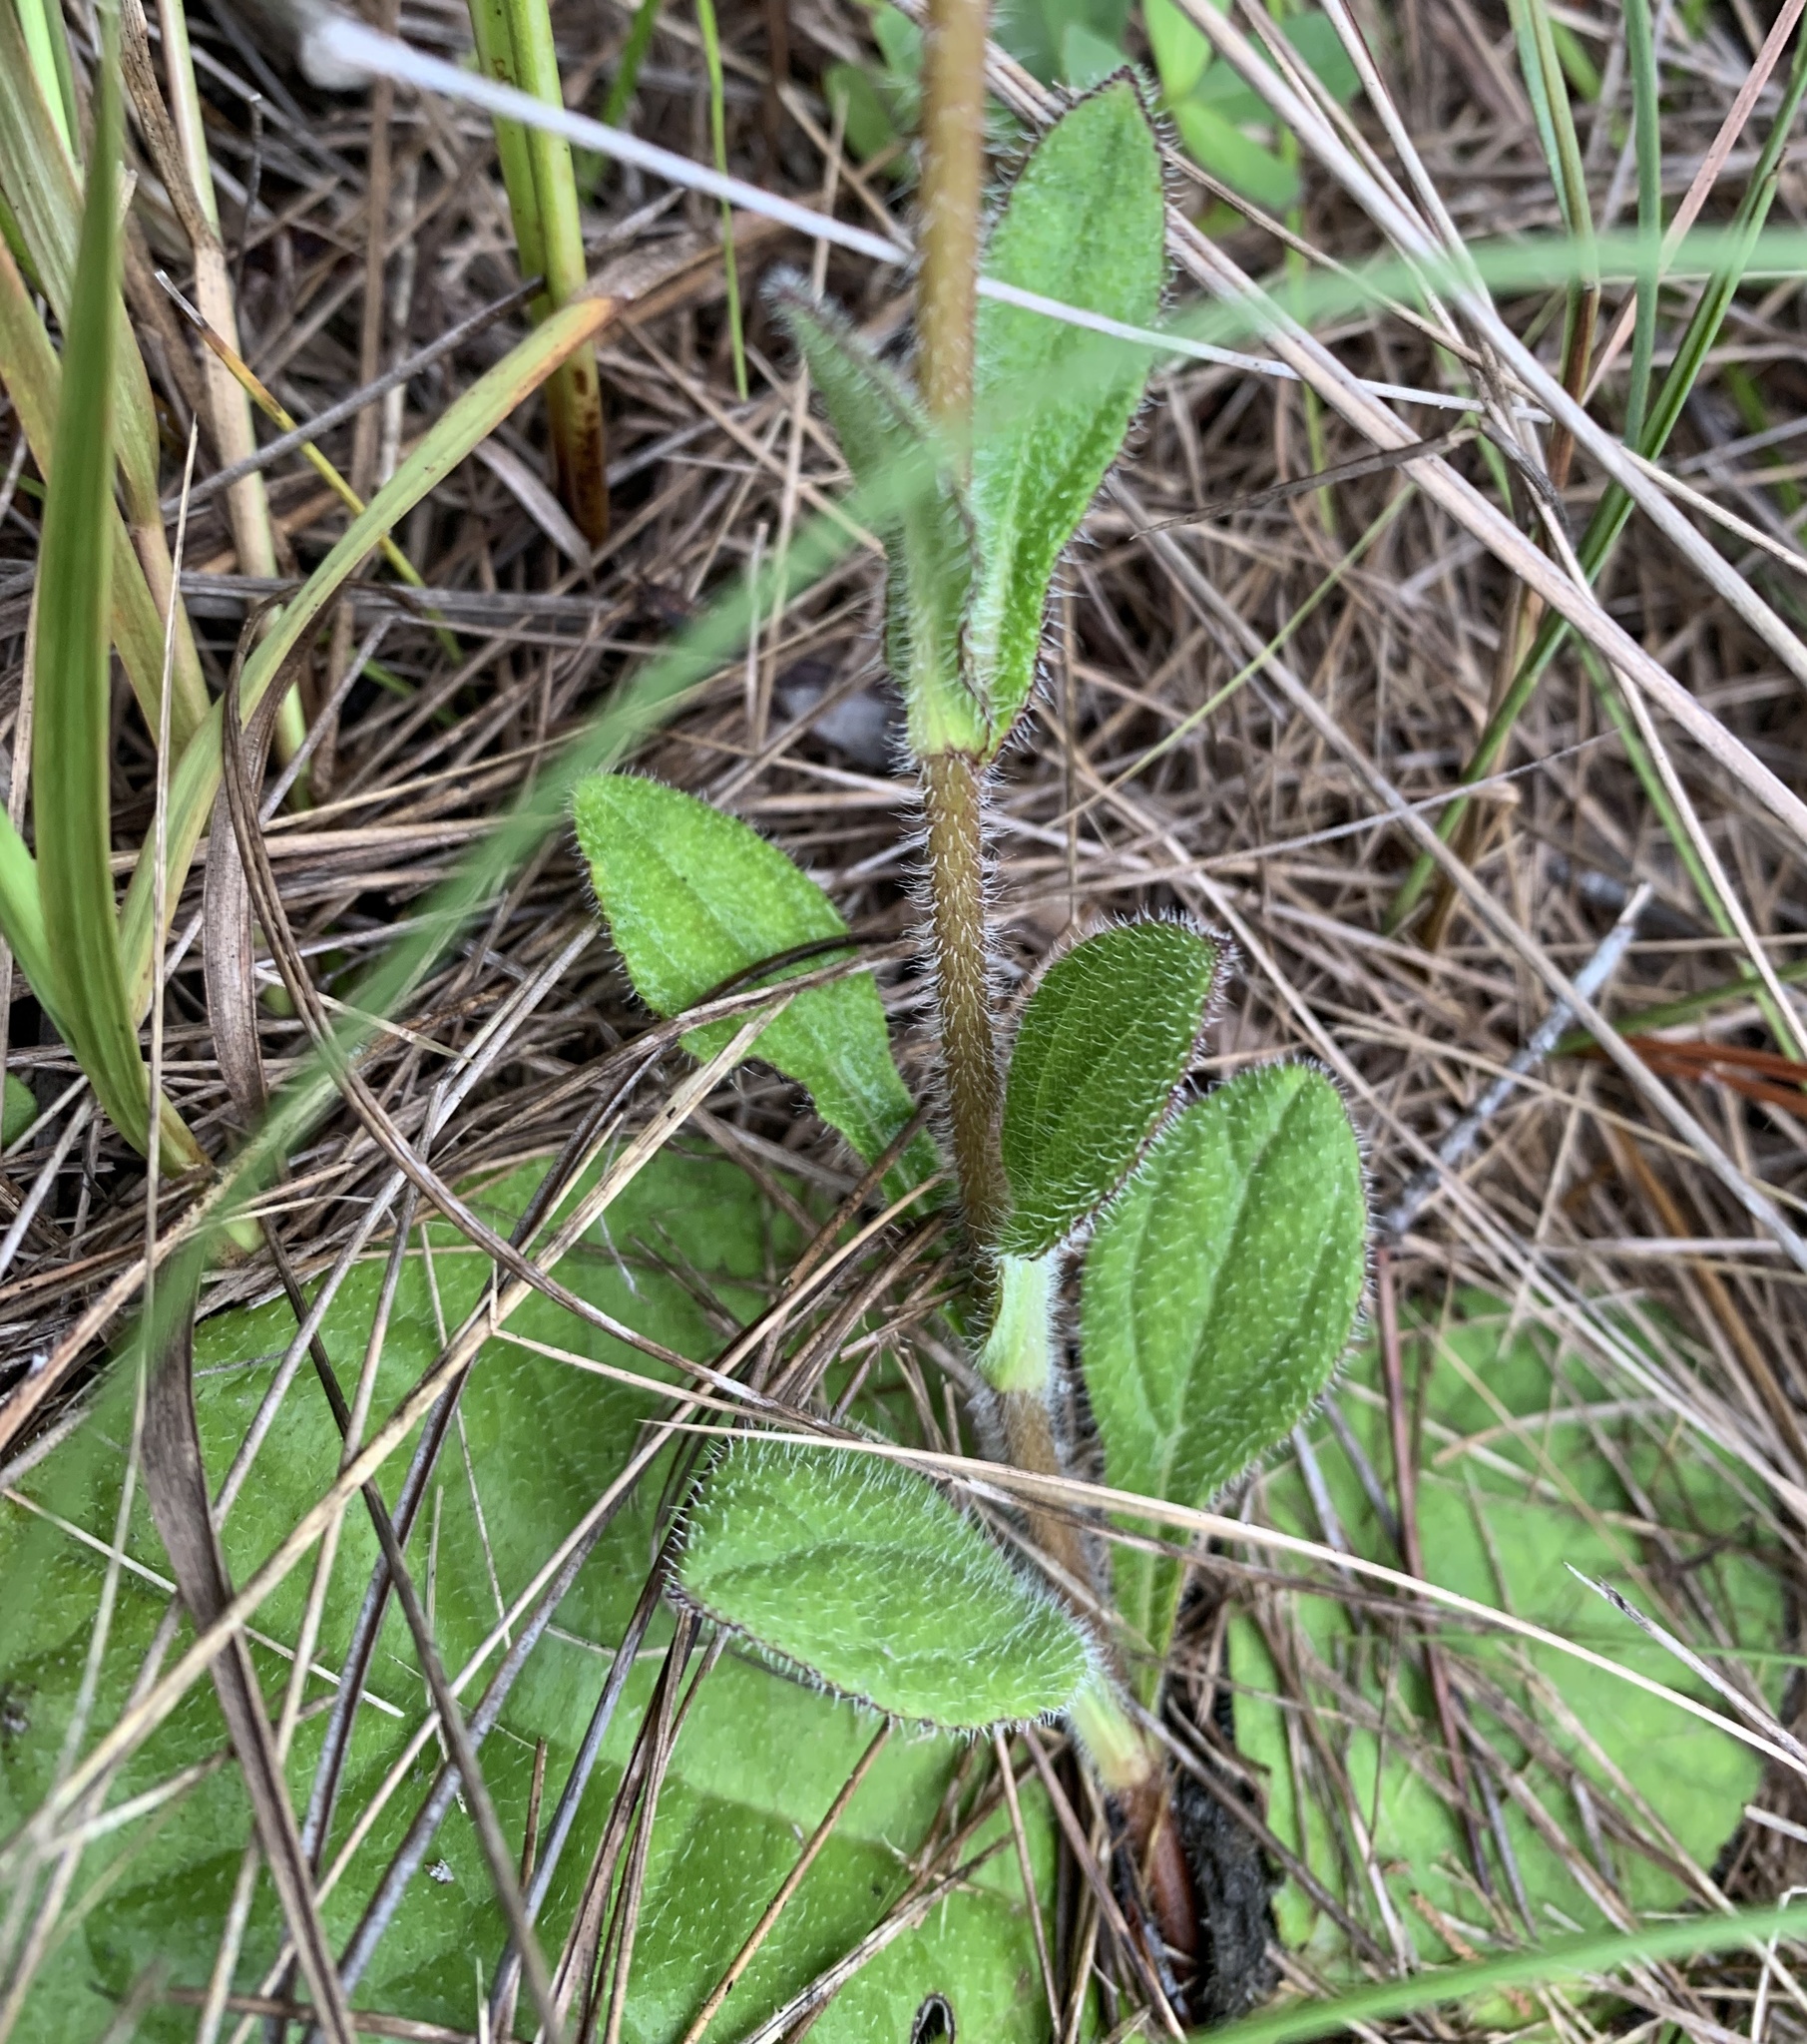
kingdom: Plantae
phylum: Tracheophyta
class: Magnoliopsida
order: Asterales
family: Asteraceae
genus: Helianthus
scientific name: Helianthus radula
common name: Pineland sunflower
